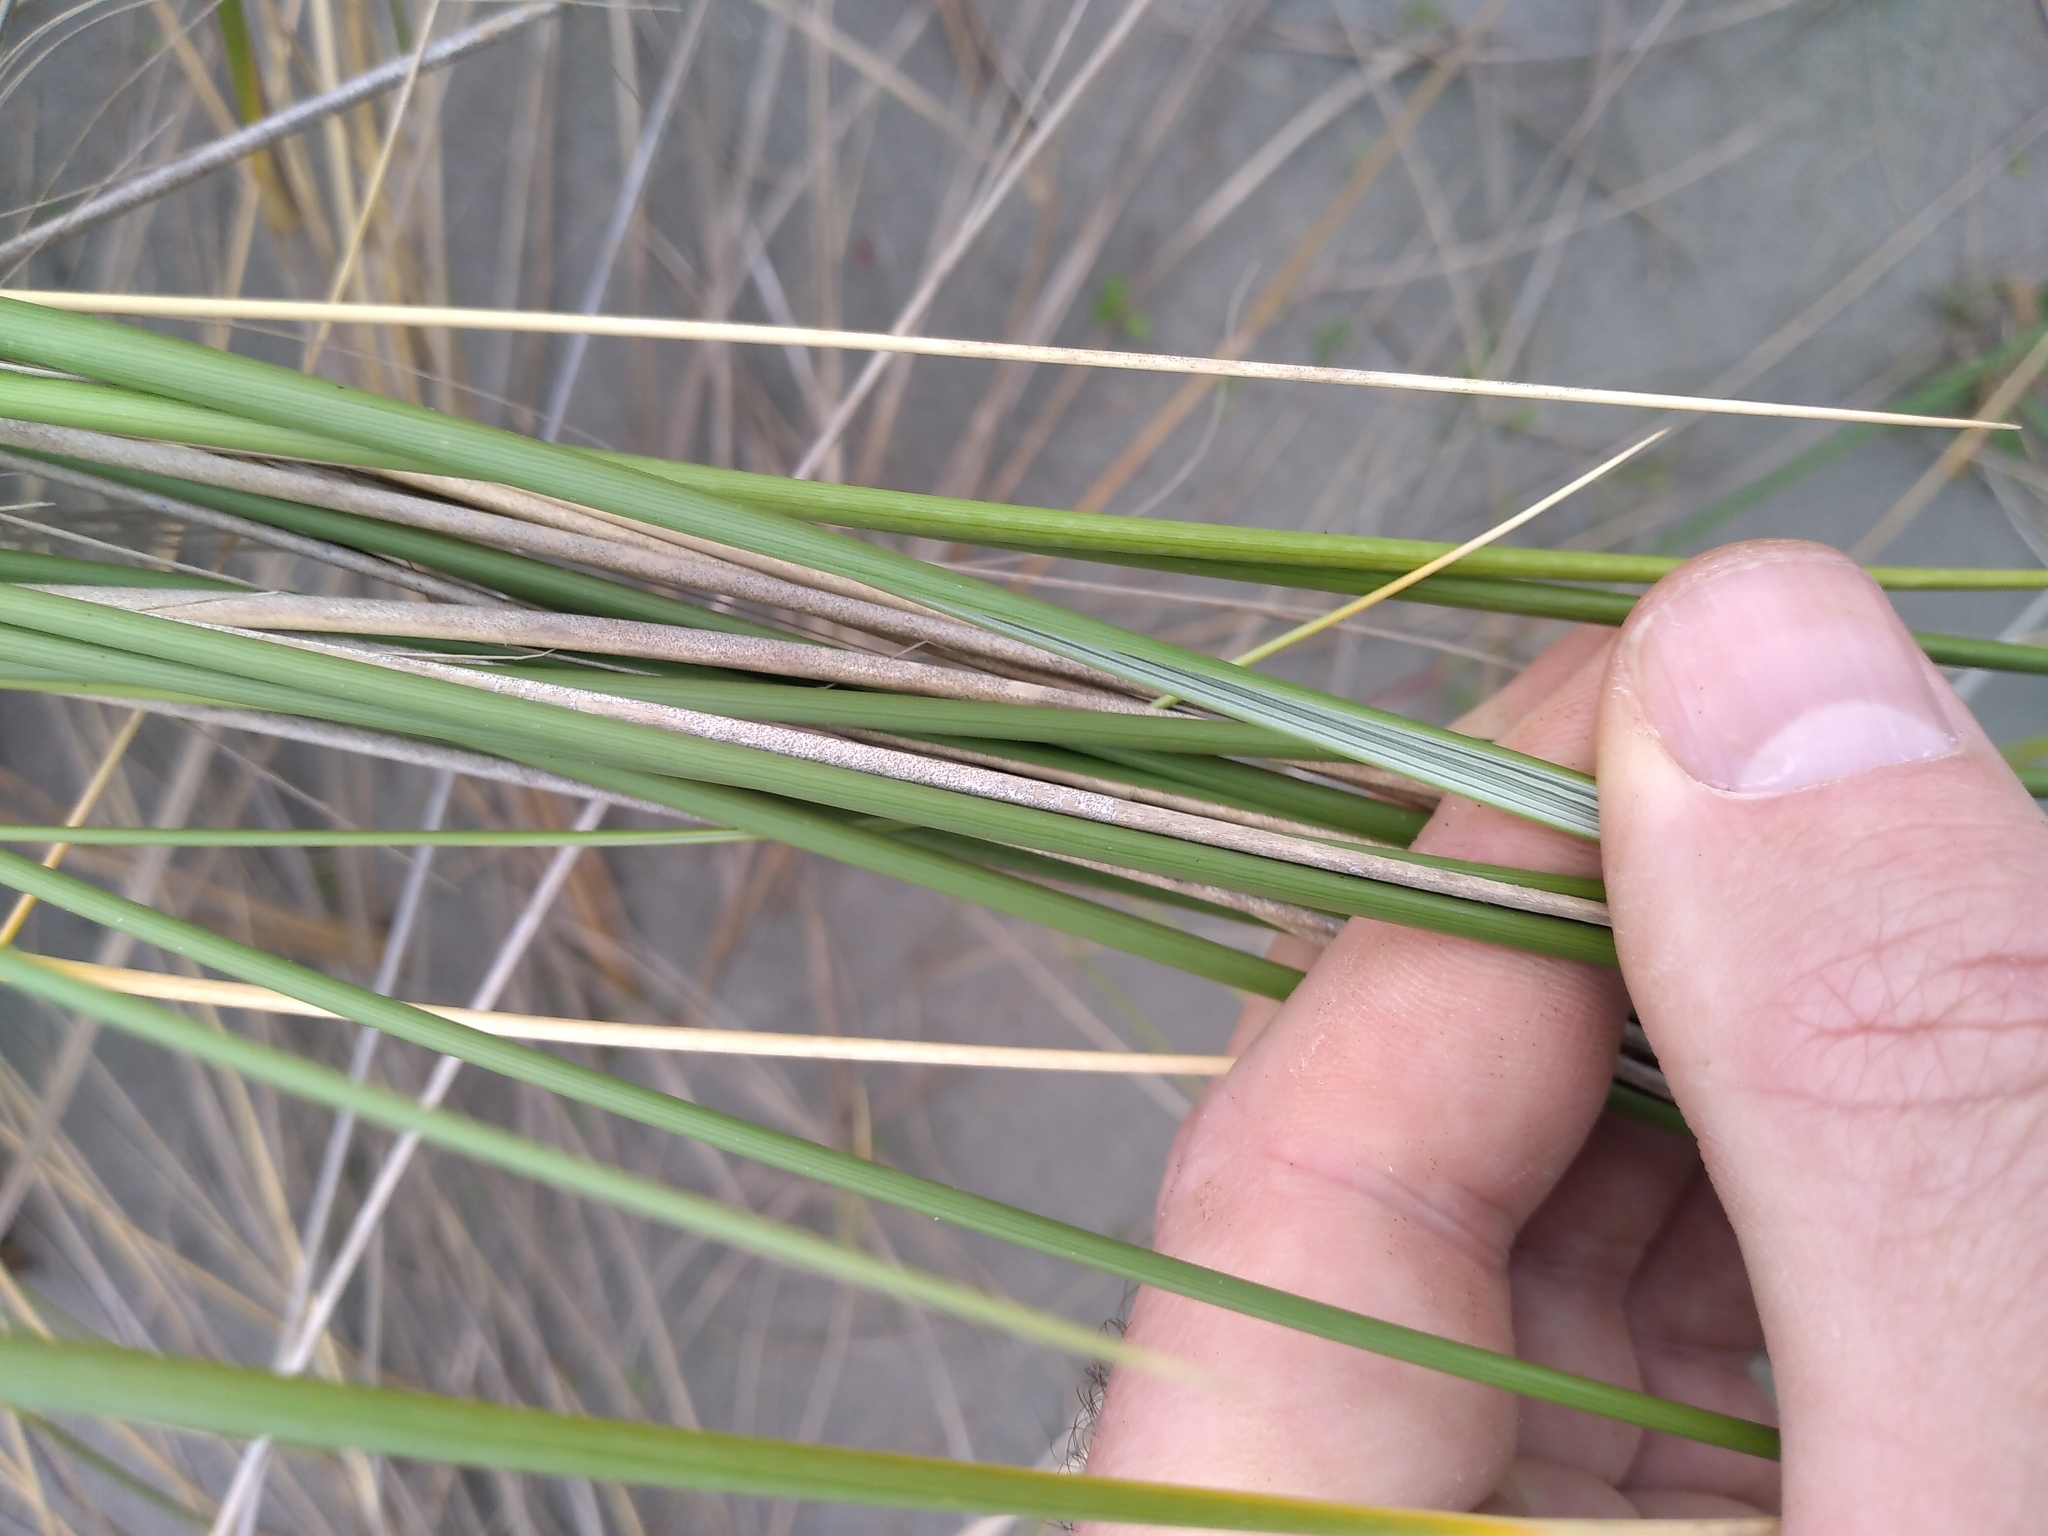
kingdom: Plantae
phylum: Tracheophyta
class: Liliopsida
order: Poales
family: Poaceae
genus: Calamagrostis
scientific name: Calamagrostis arenaria
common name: European beachgrass
